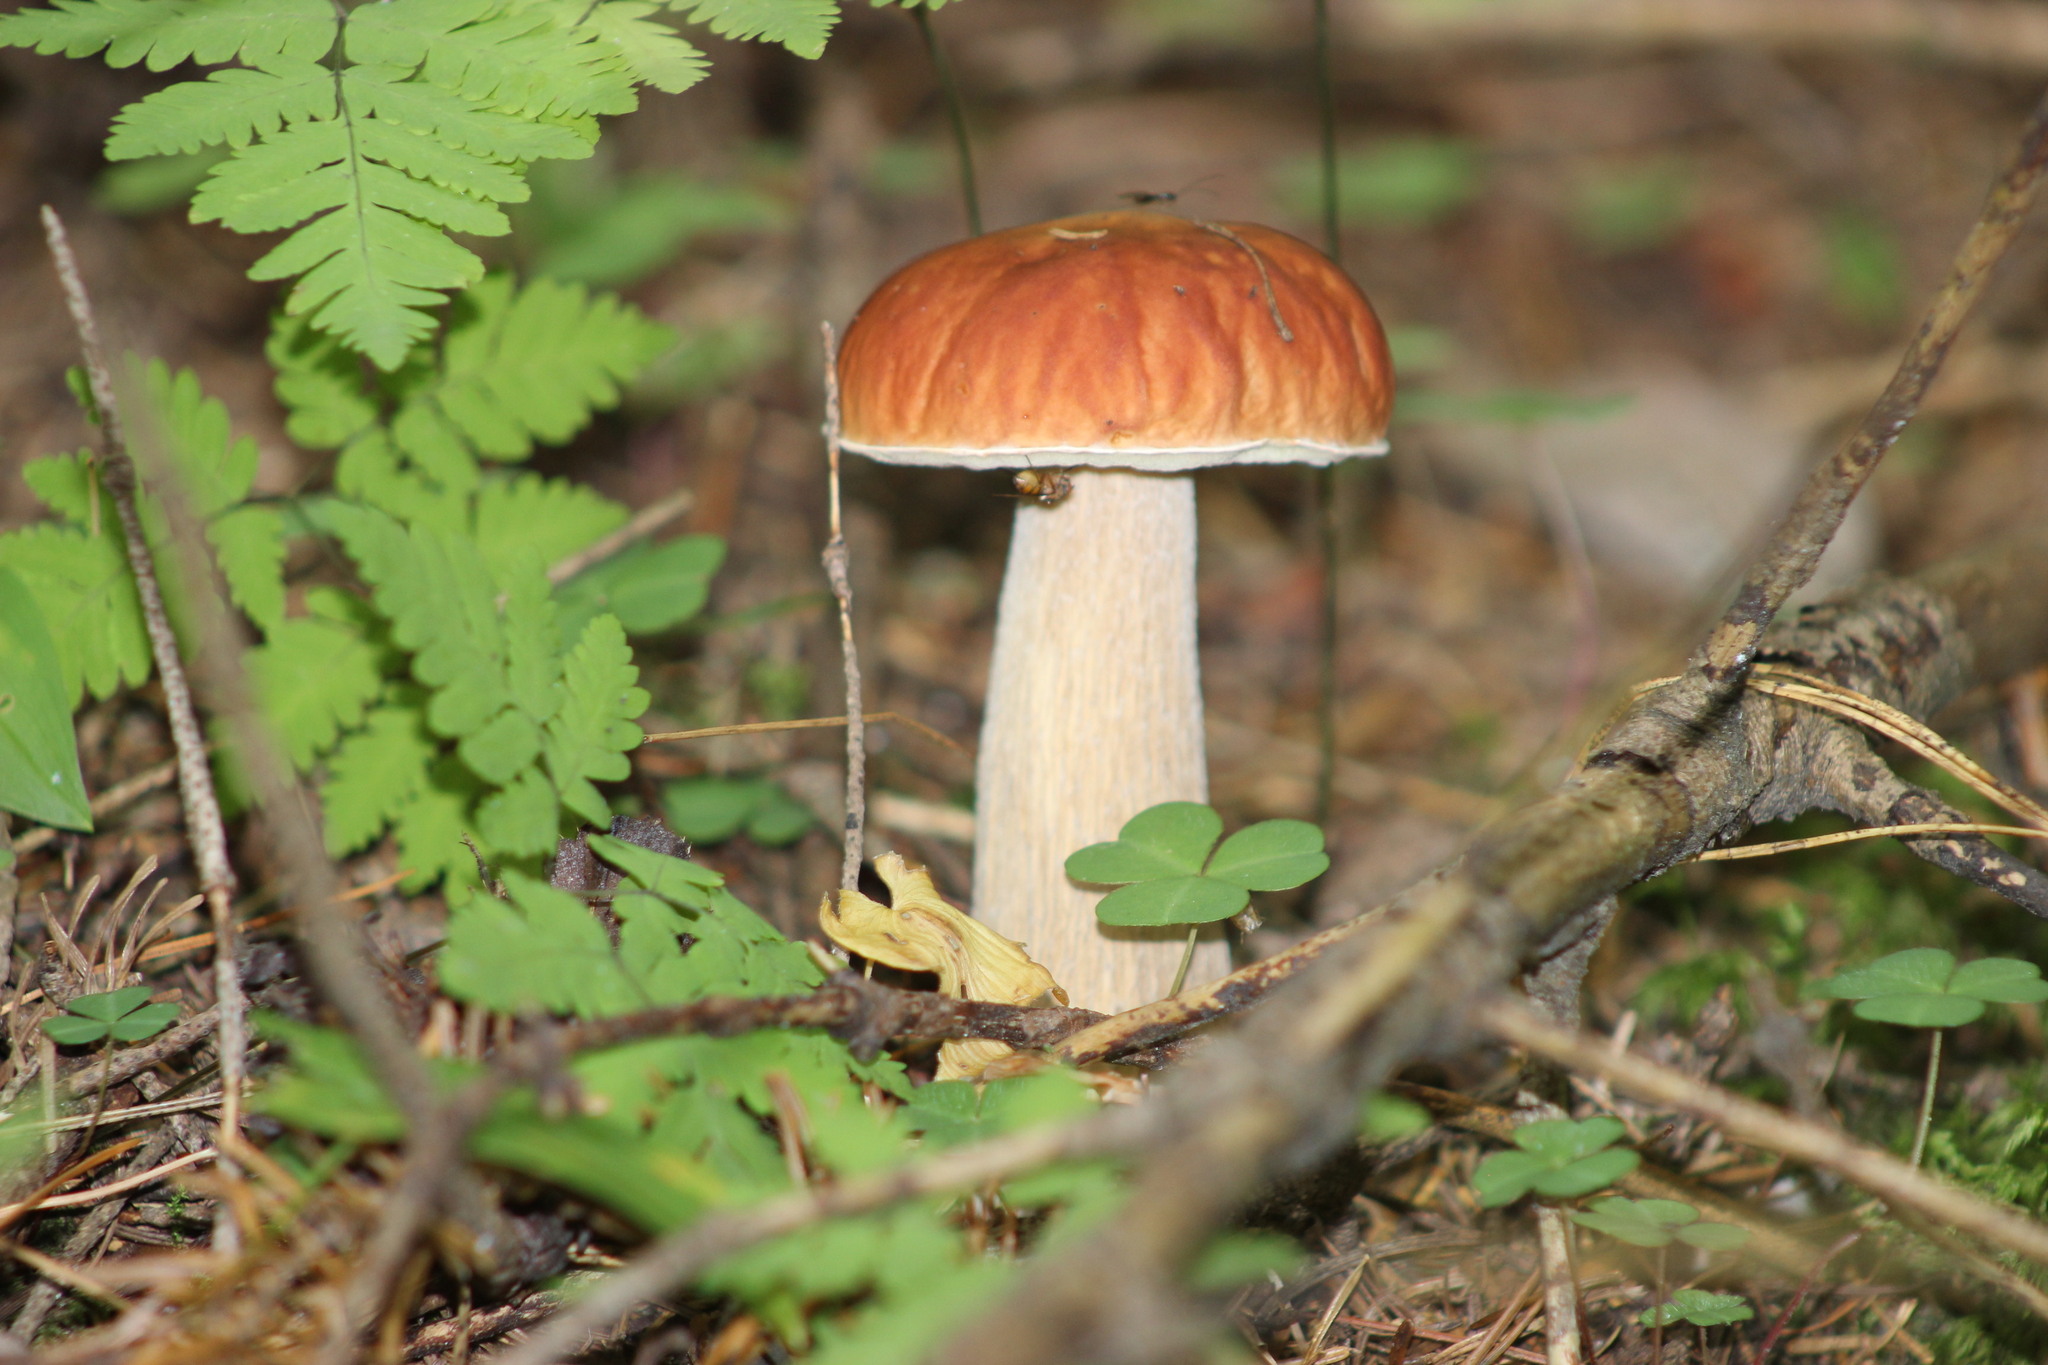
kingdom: Fungi
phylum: Basidiomycota
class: Agaricomycetes
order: Boletales
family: Boletaceae
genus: Boletus
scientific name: Boletus edulis
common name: Cep
